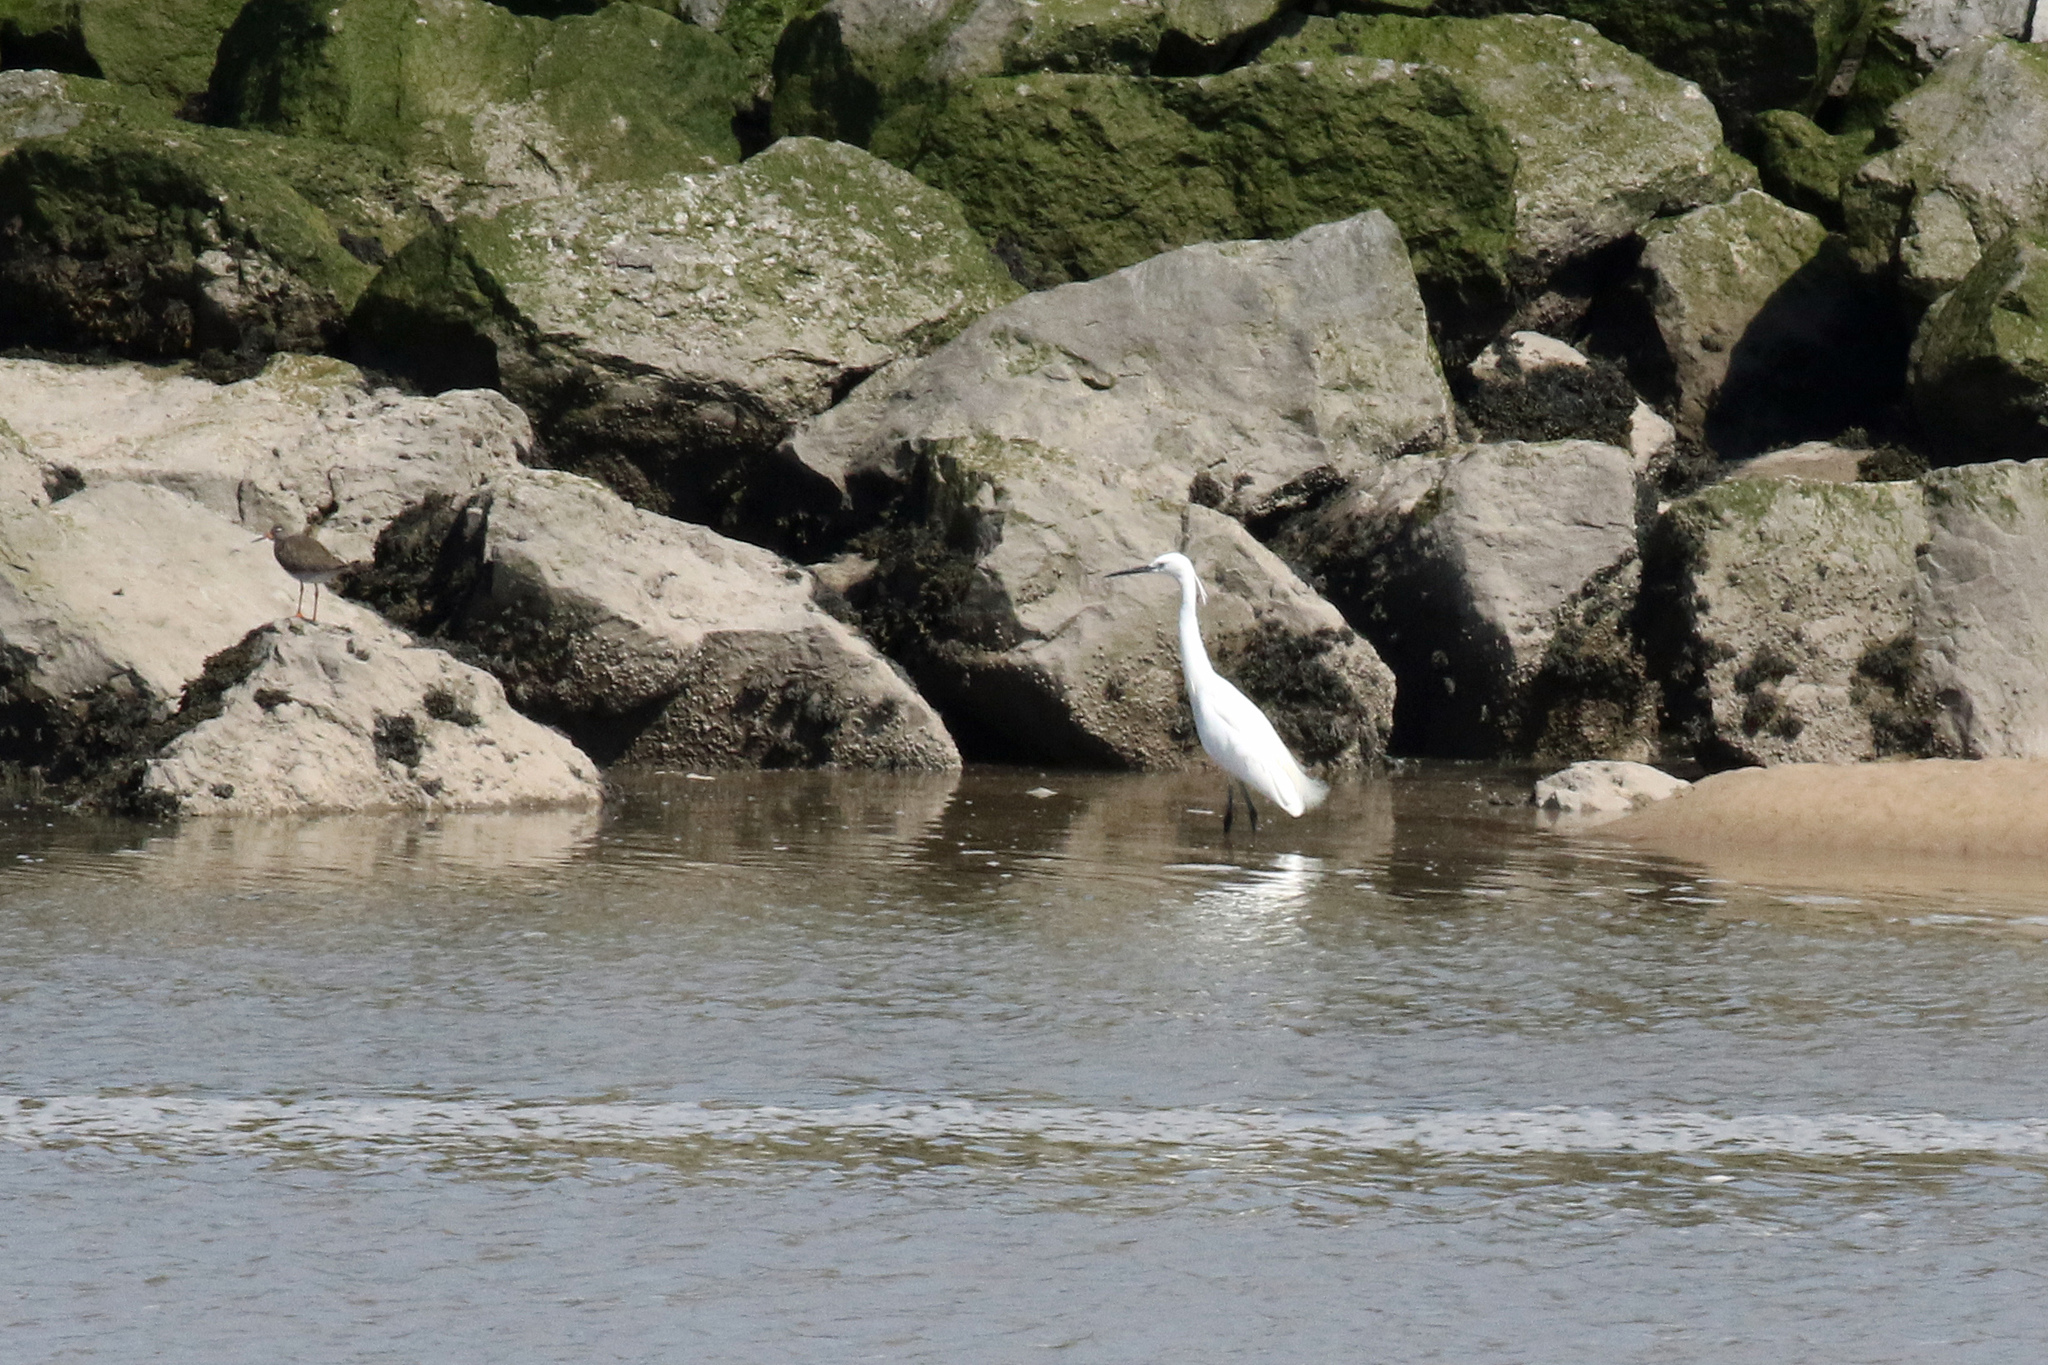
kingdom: Animalia
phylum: Chordata
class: Aves
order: Pelecaniformes
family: Ardeidae
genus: Egretta
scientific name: Egretta garzetta
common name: Little egret
